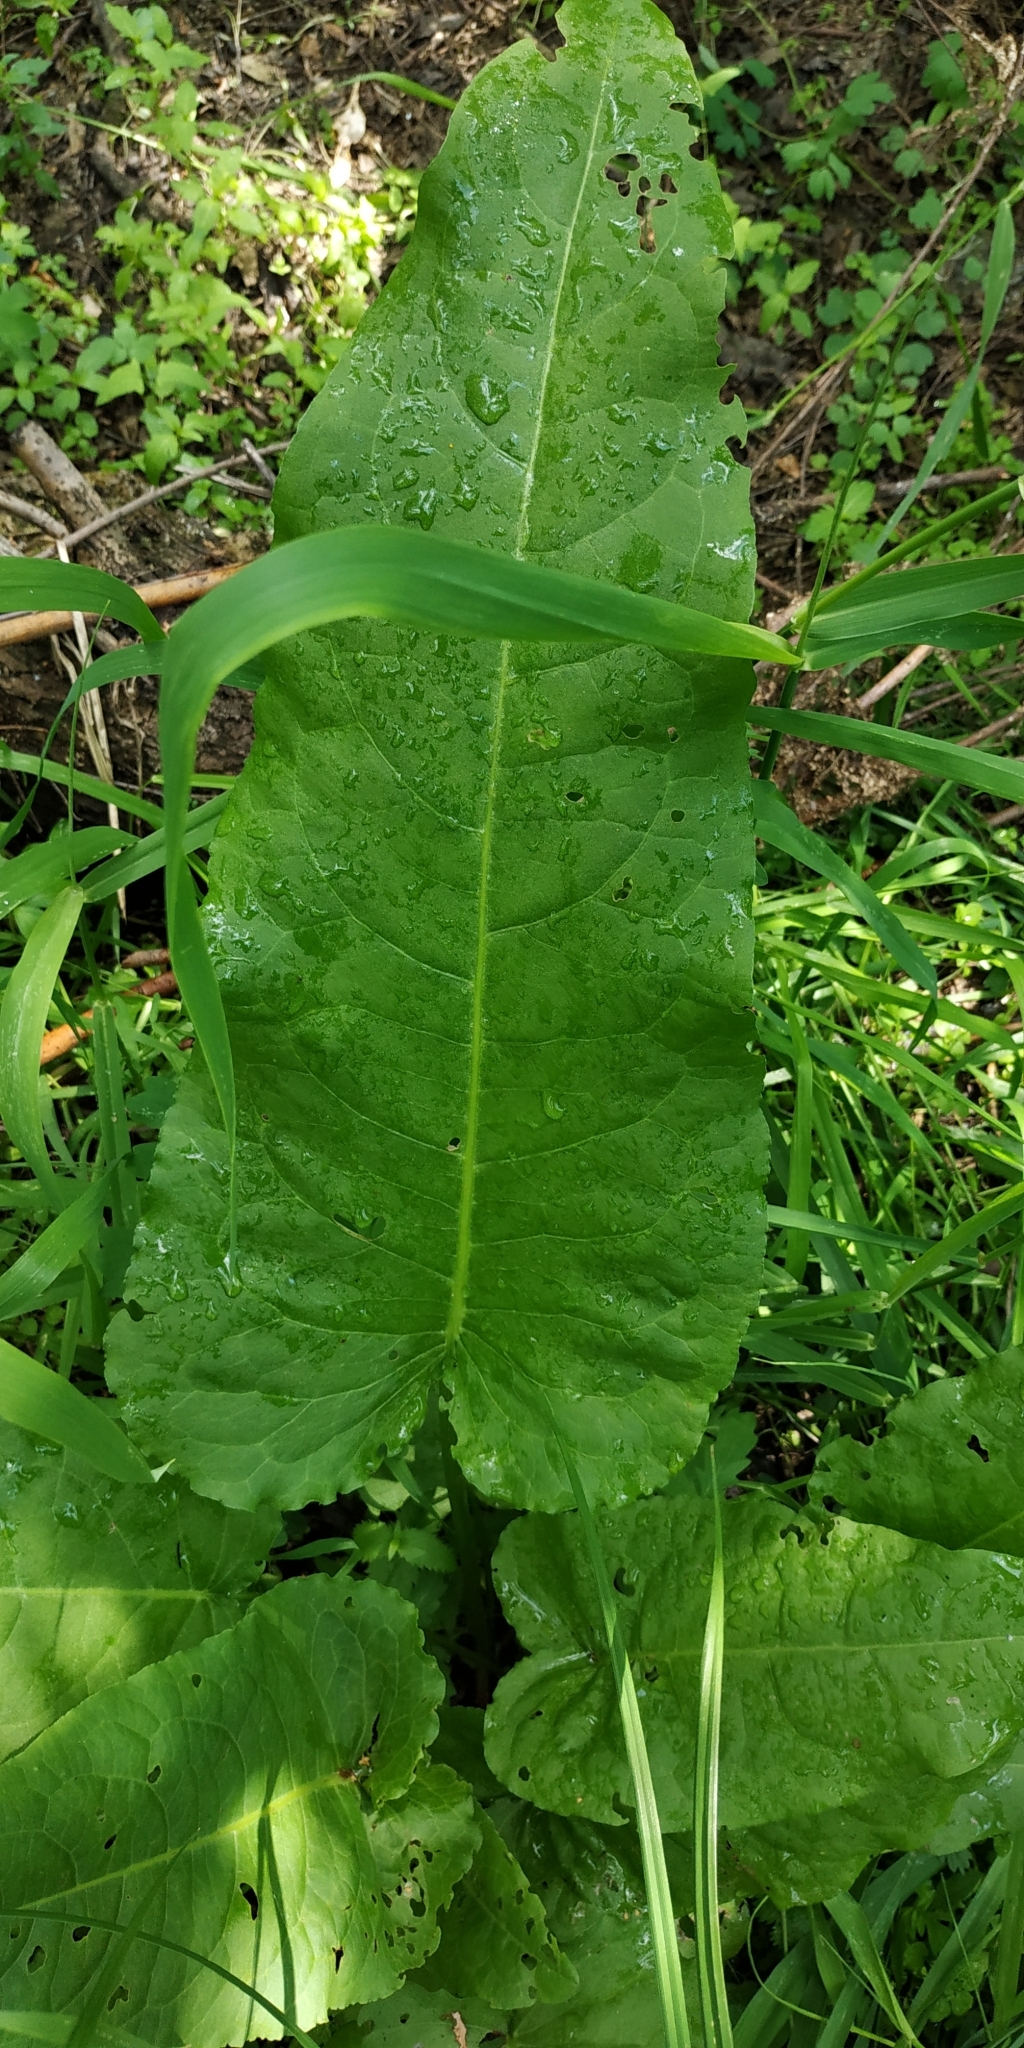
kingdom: Plantae
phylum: Tracheophyta
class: Magnoliopsida
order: Caryophyllales
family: Polygonaceae
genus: Rumex
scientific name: Rumex aquaticus
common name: Scottish dock
